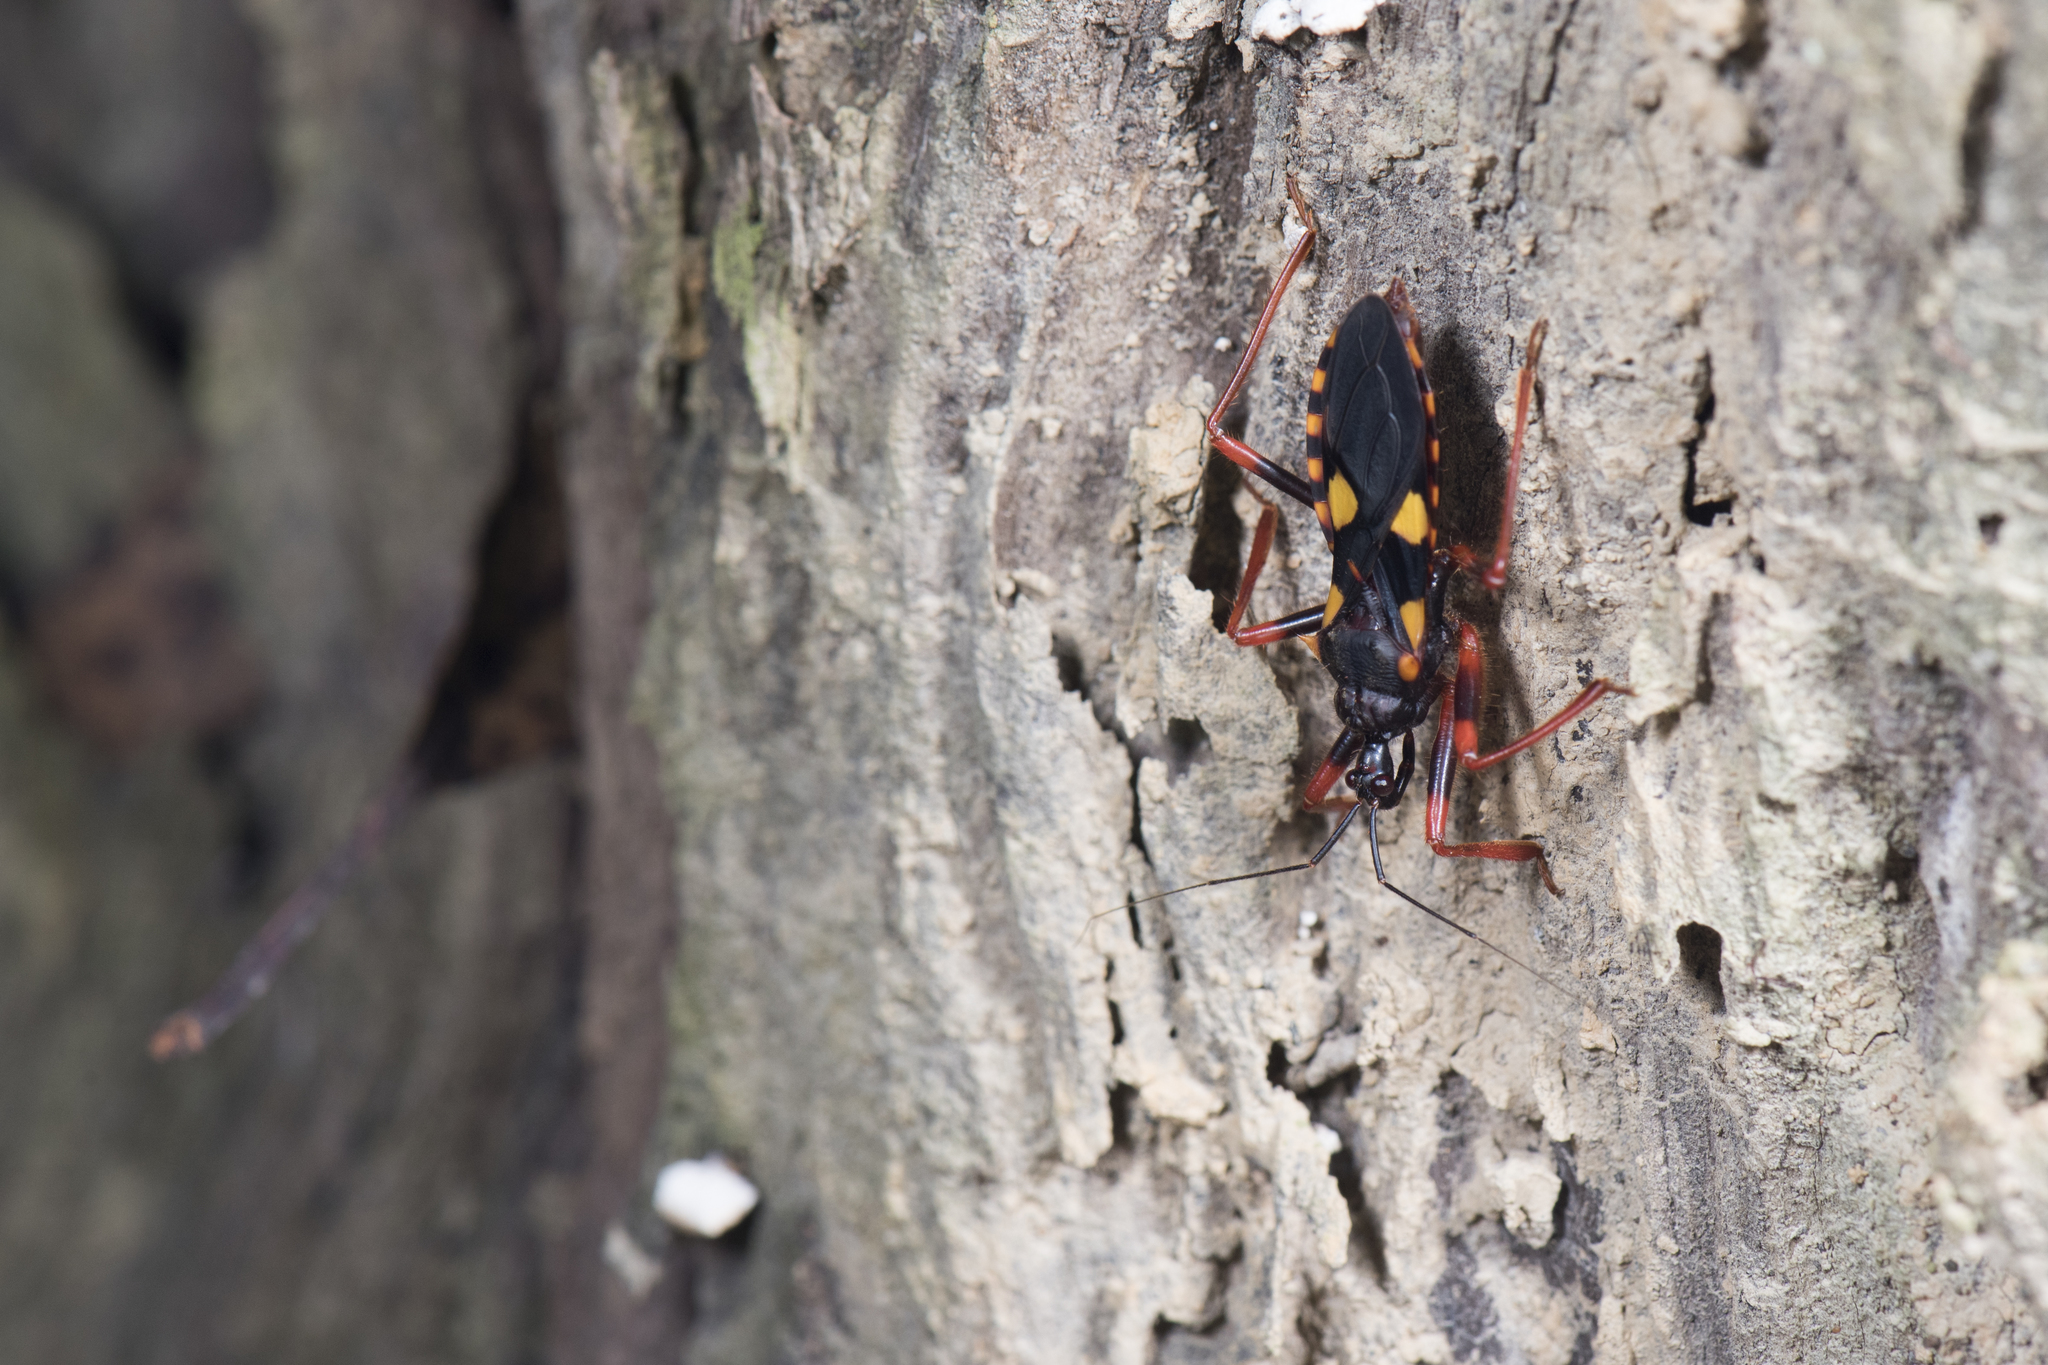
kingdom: Animalia
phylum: Arthropoda
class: Insecta
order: Hemiptera
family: Reduviidae
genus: Acanthaspis
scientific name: Acanthaspis immodesta
